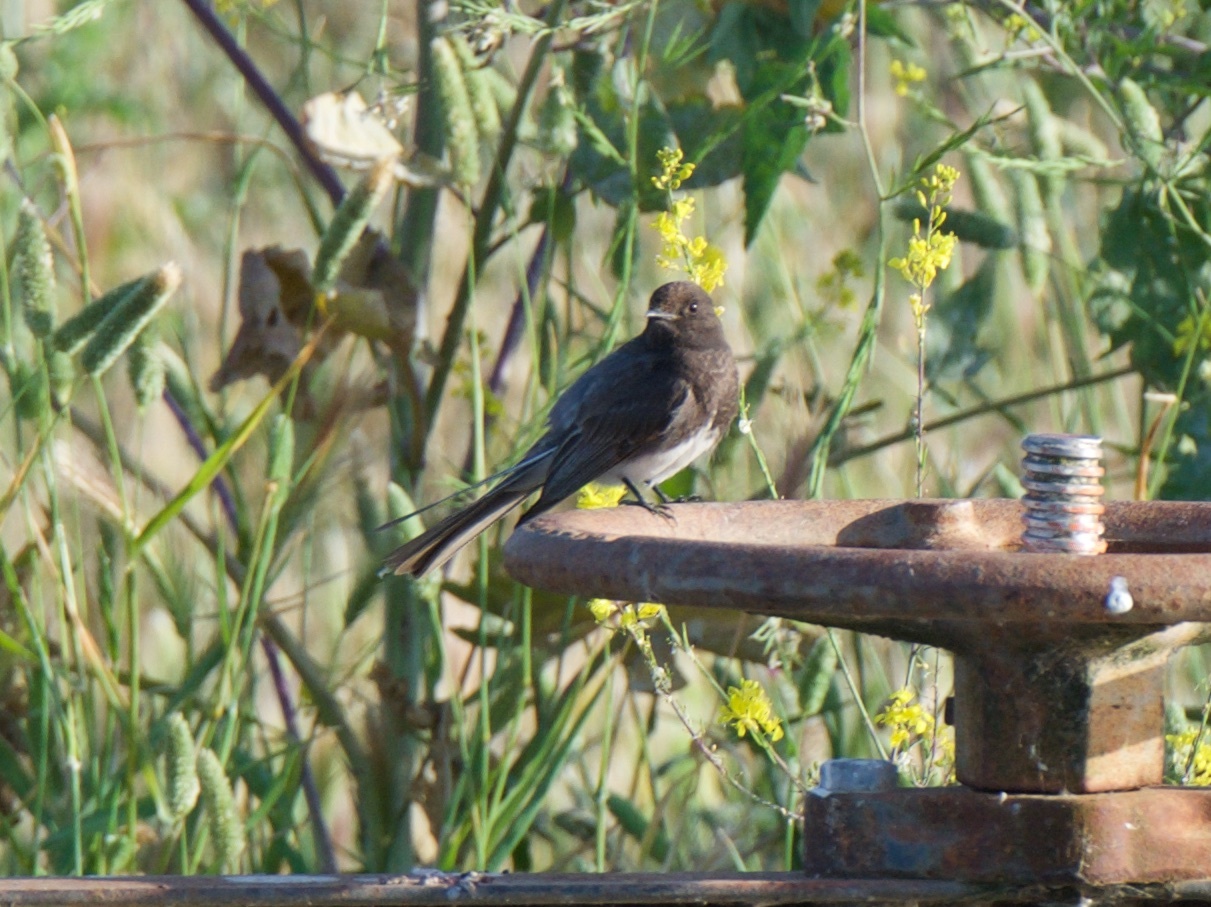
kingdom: Animalia
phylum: Chordata
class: Aves
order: Passeriformes
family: Tyrannidae
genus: Sayornis
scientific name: Sayornis nigricans
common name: Black phoebe
